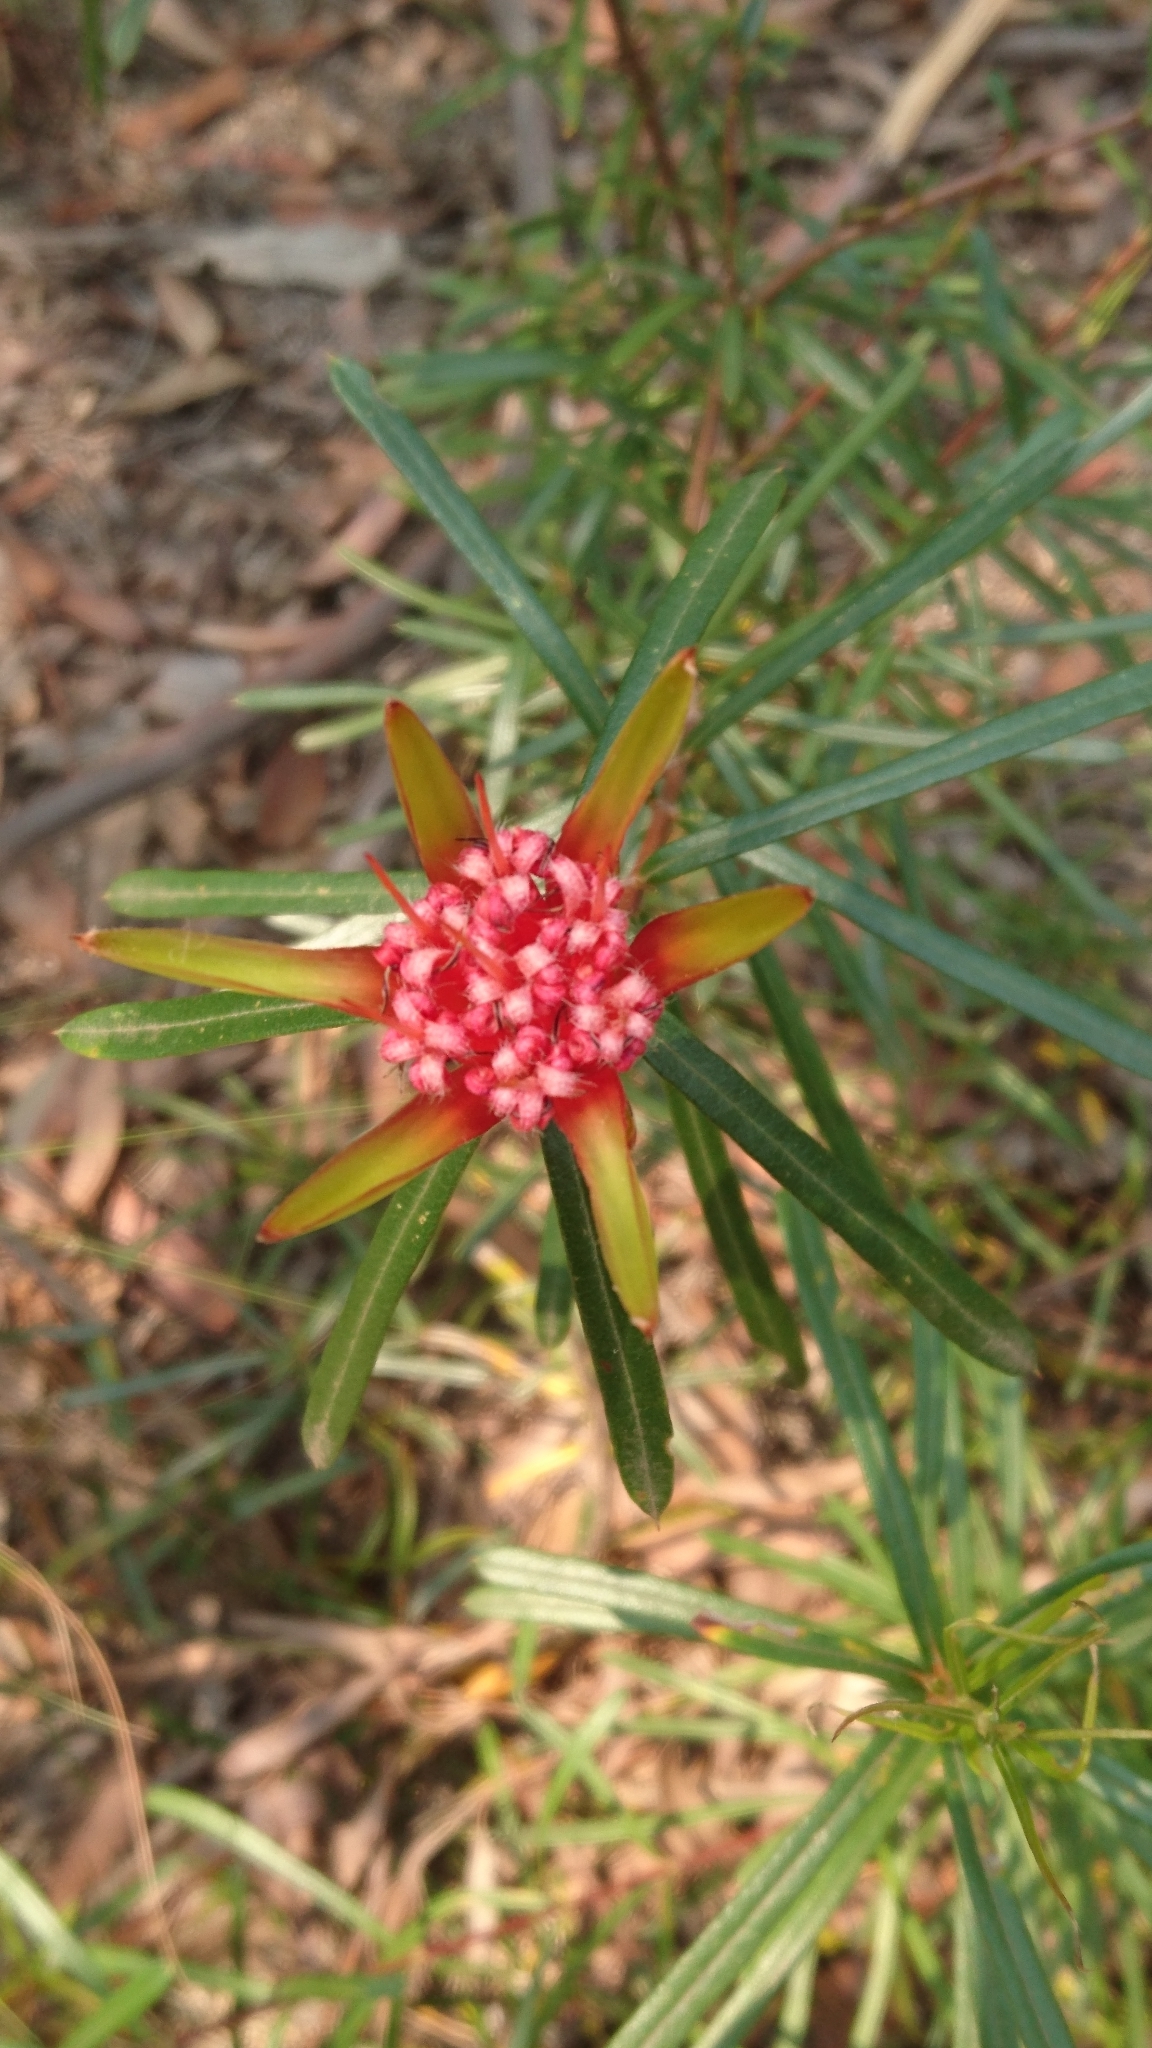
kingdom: Plantae
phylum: Tracheophyta
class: Magnoliopsida
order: Proteales
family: Proteaceae
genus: Lambertia
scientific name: Lambertia formosa
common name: Mountain-devil
